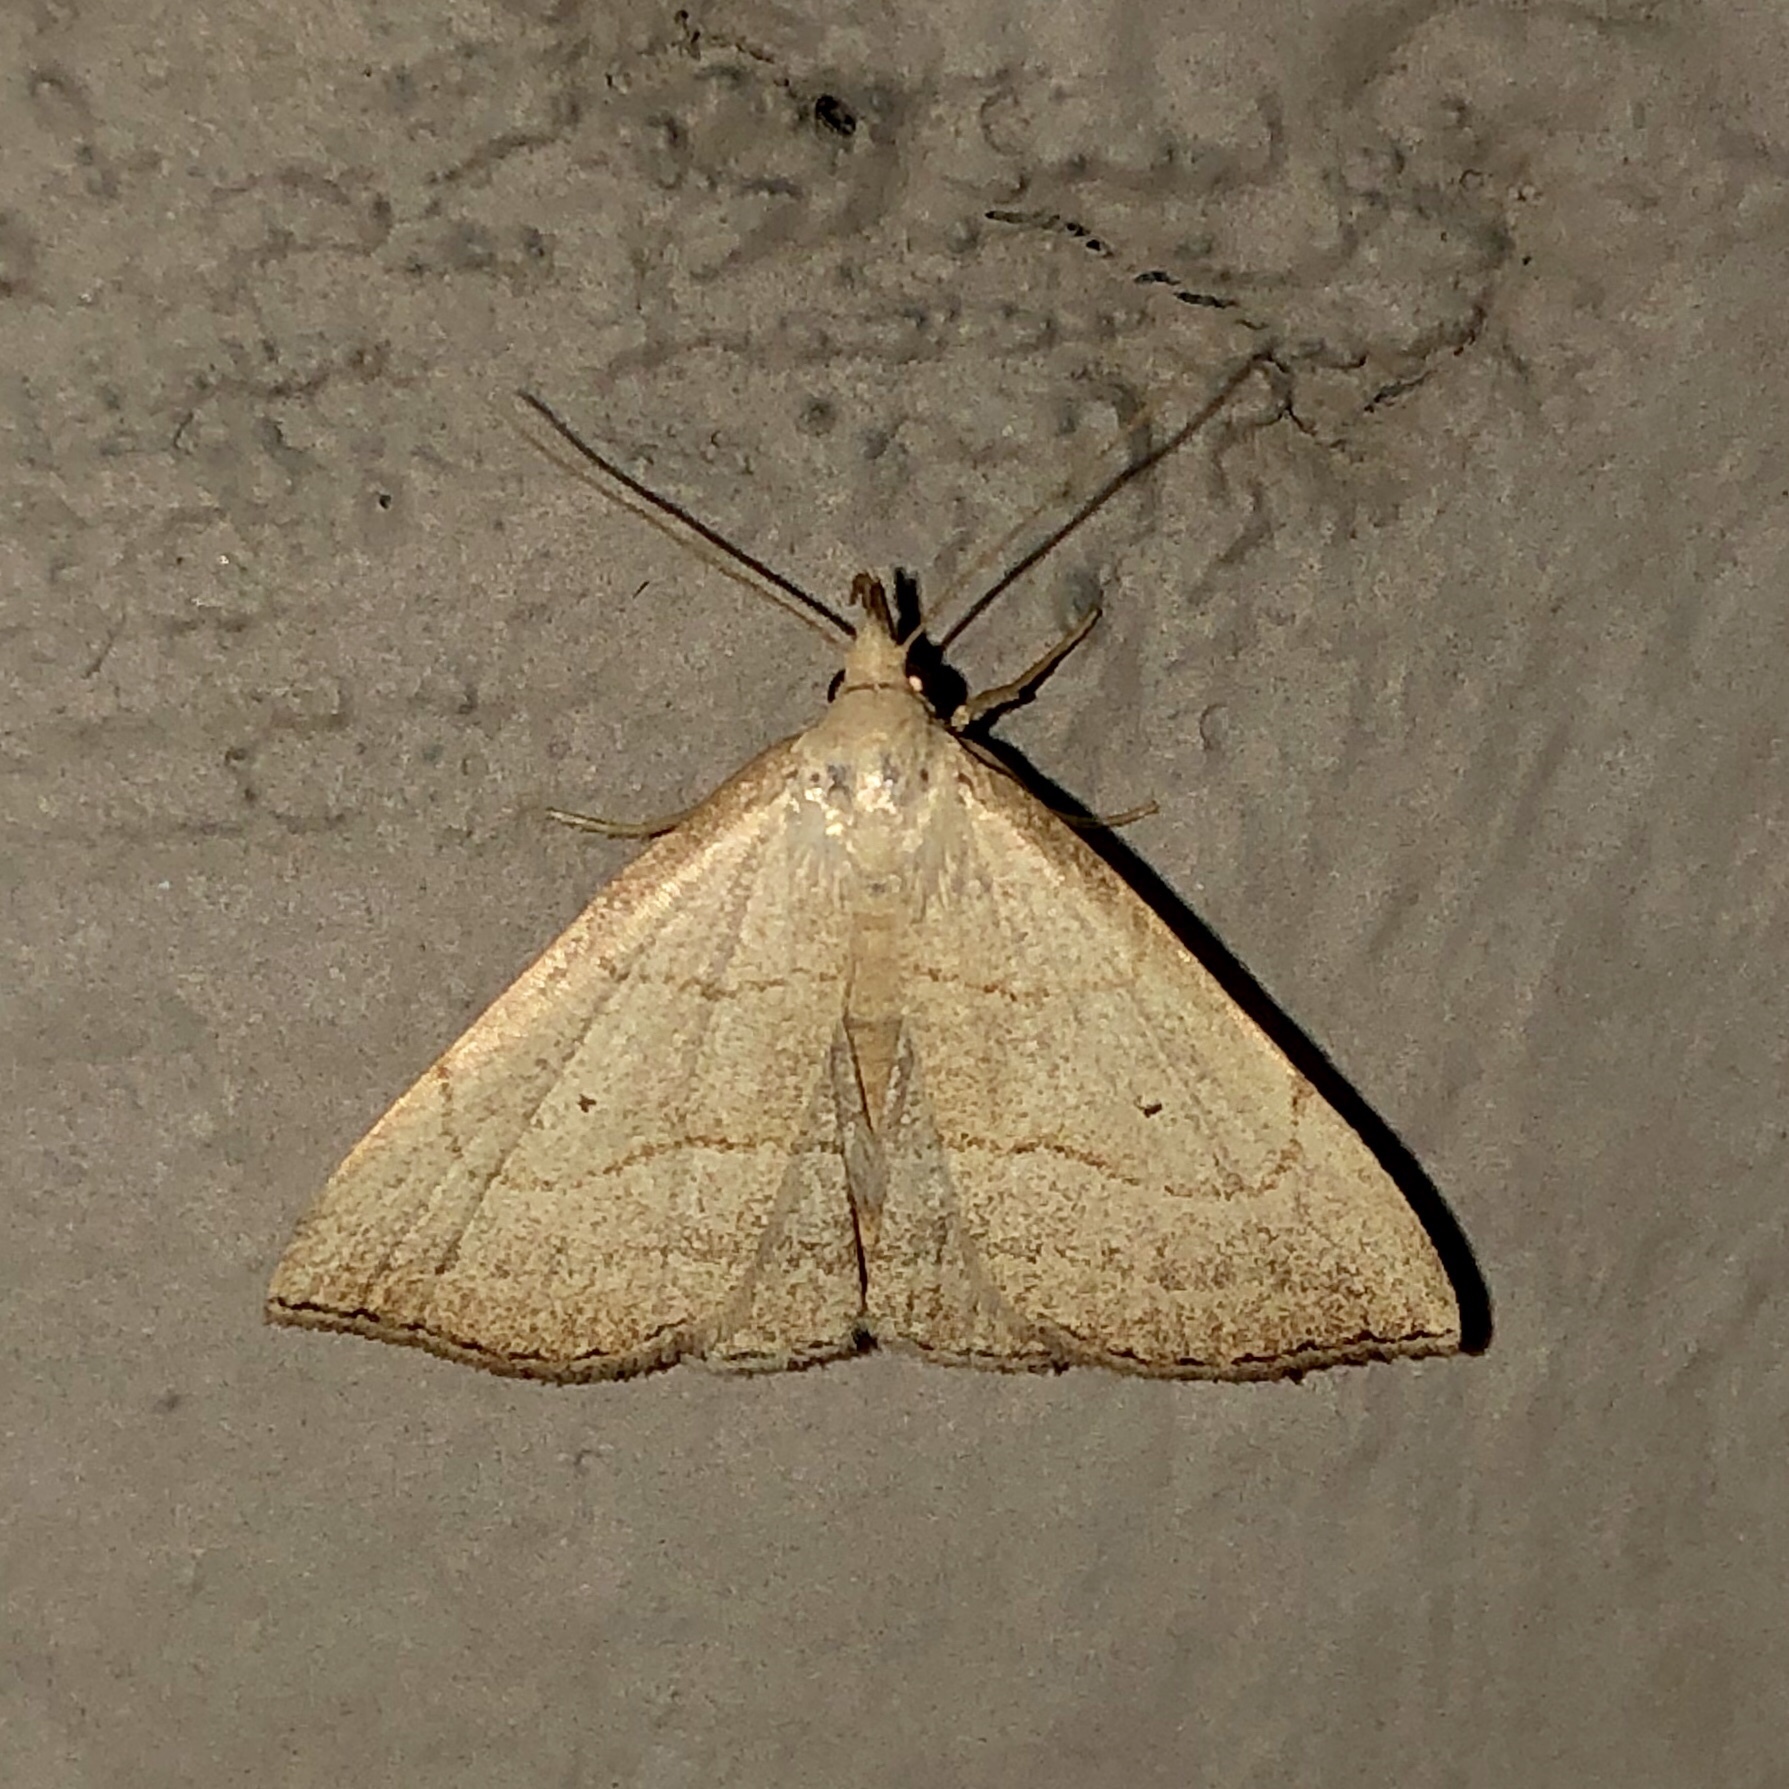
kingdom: Animalia
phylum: Arthropoda
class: Insecta
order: Lepidoptera
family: Erebidae
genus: Macrochilo
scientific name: Macrochilo litophora
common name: Brown-lined owlet
